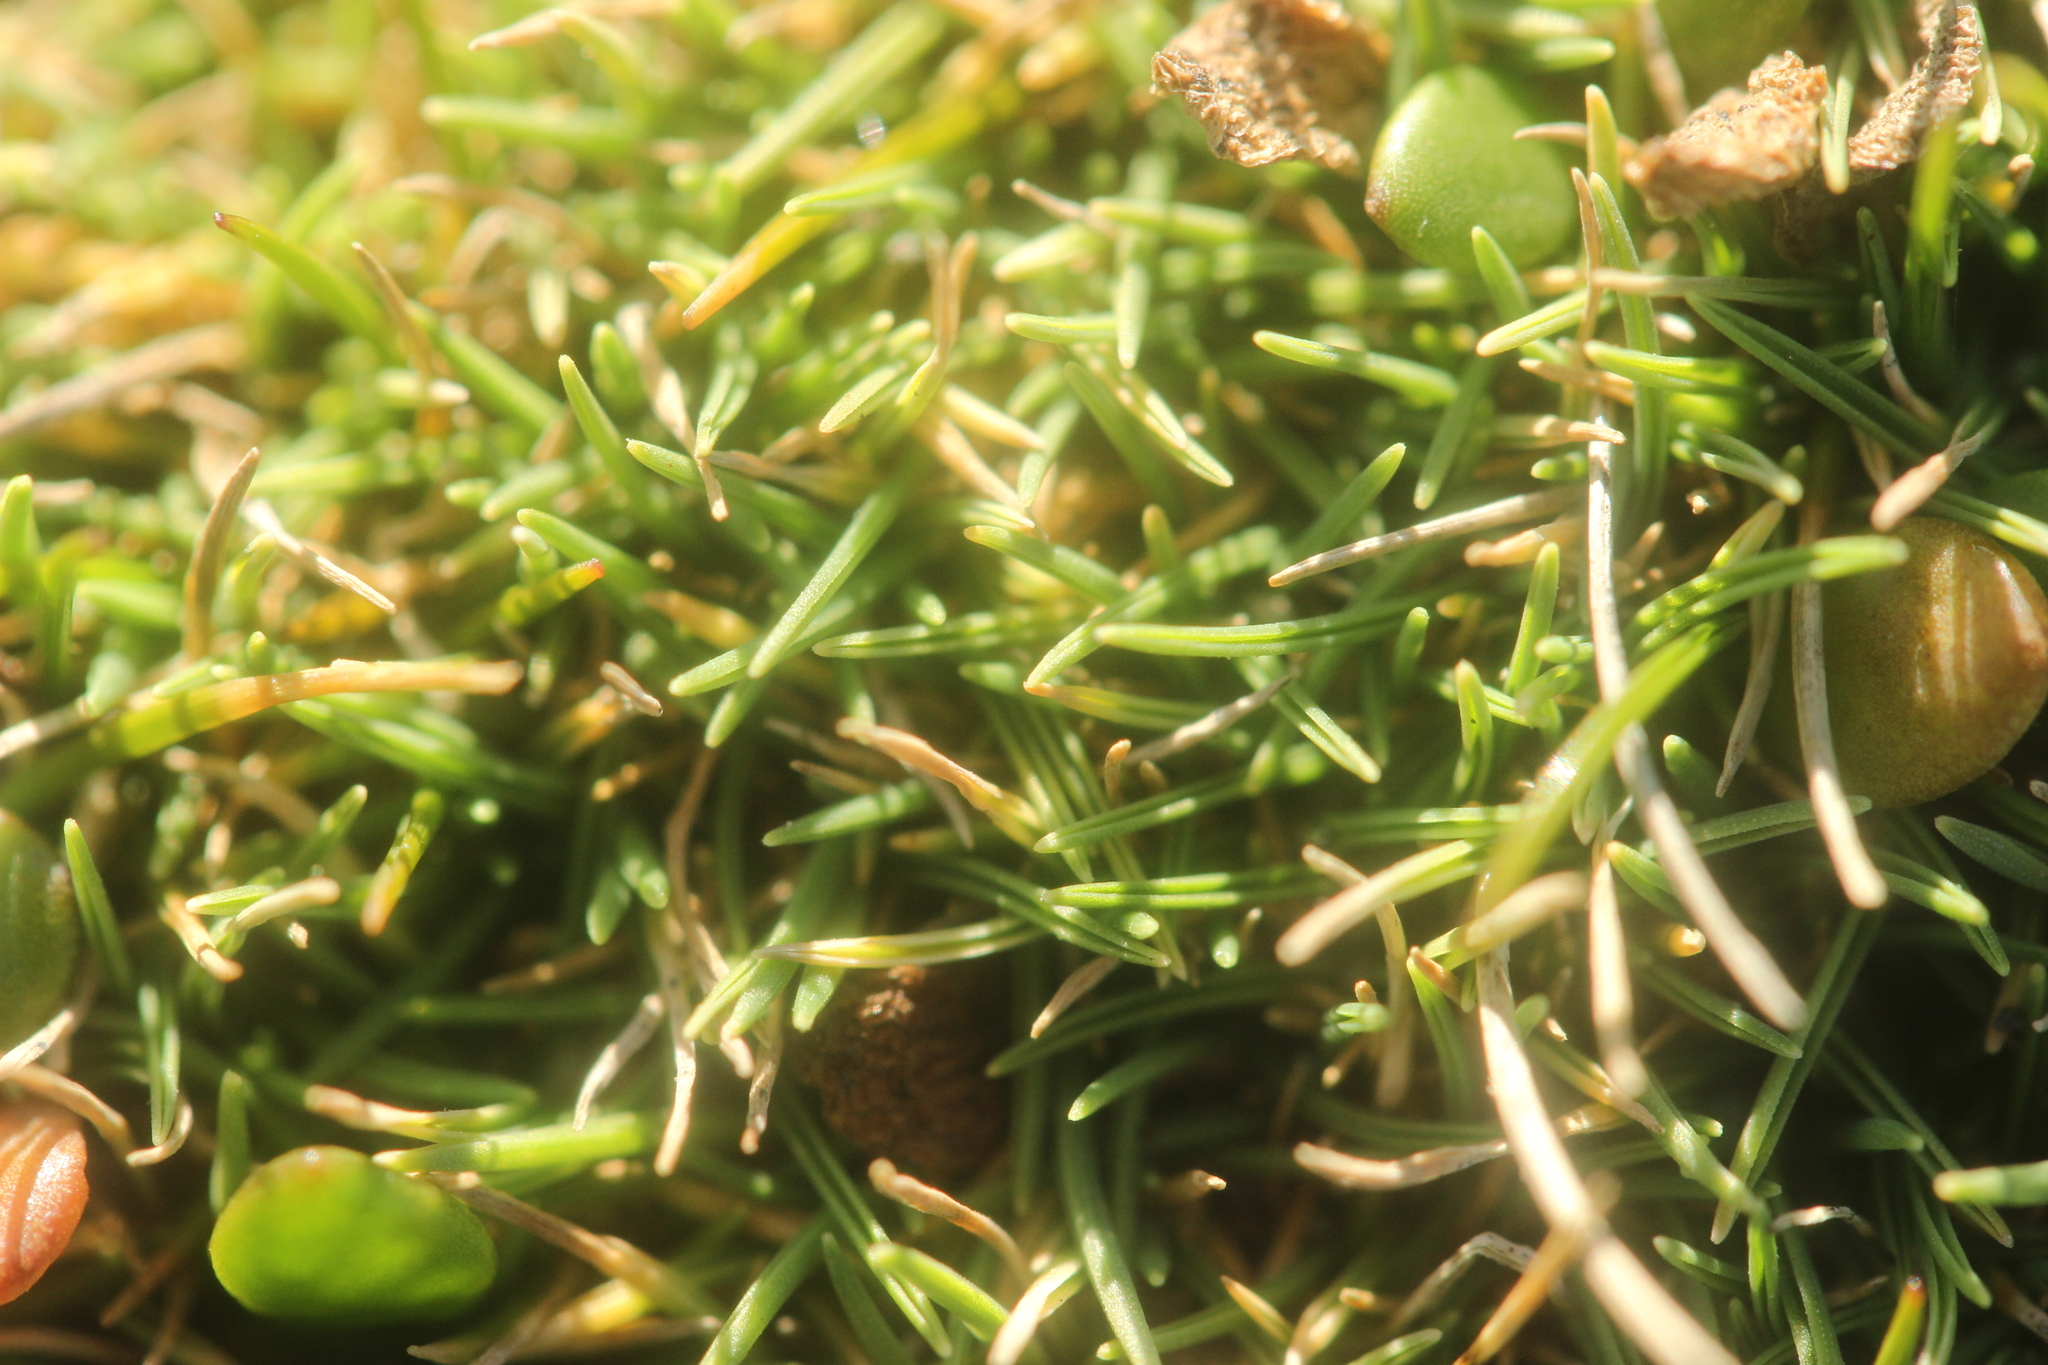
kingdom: Plantae
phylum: Tracheophyta
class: Liliopsida
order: Poales
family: Poaceae
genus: Zoysia
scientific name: Zoysia minima
